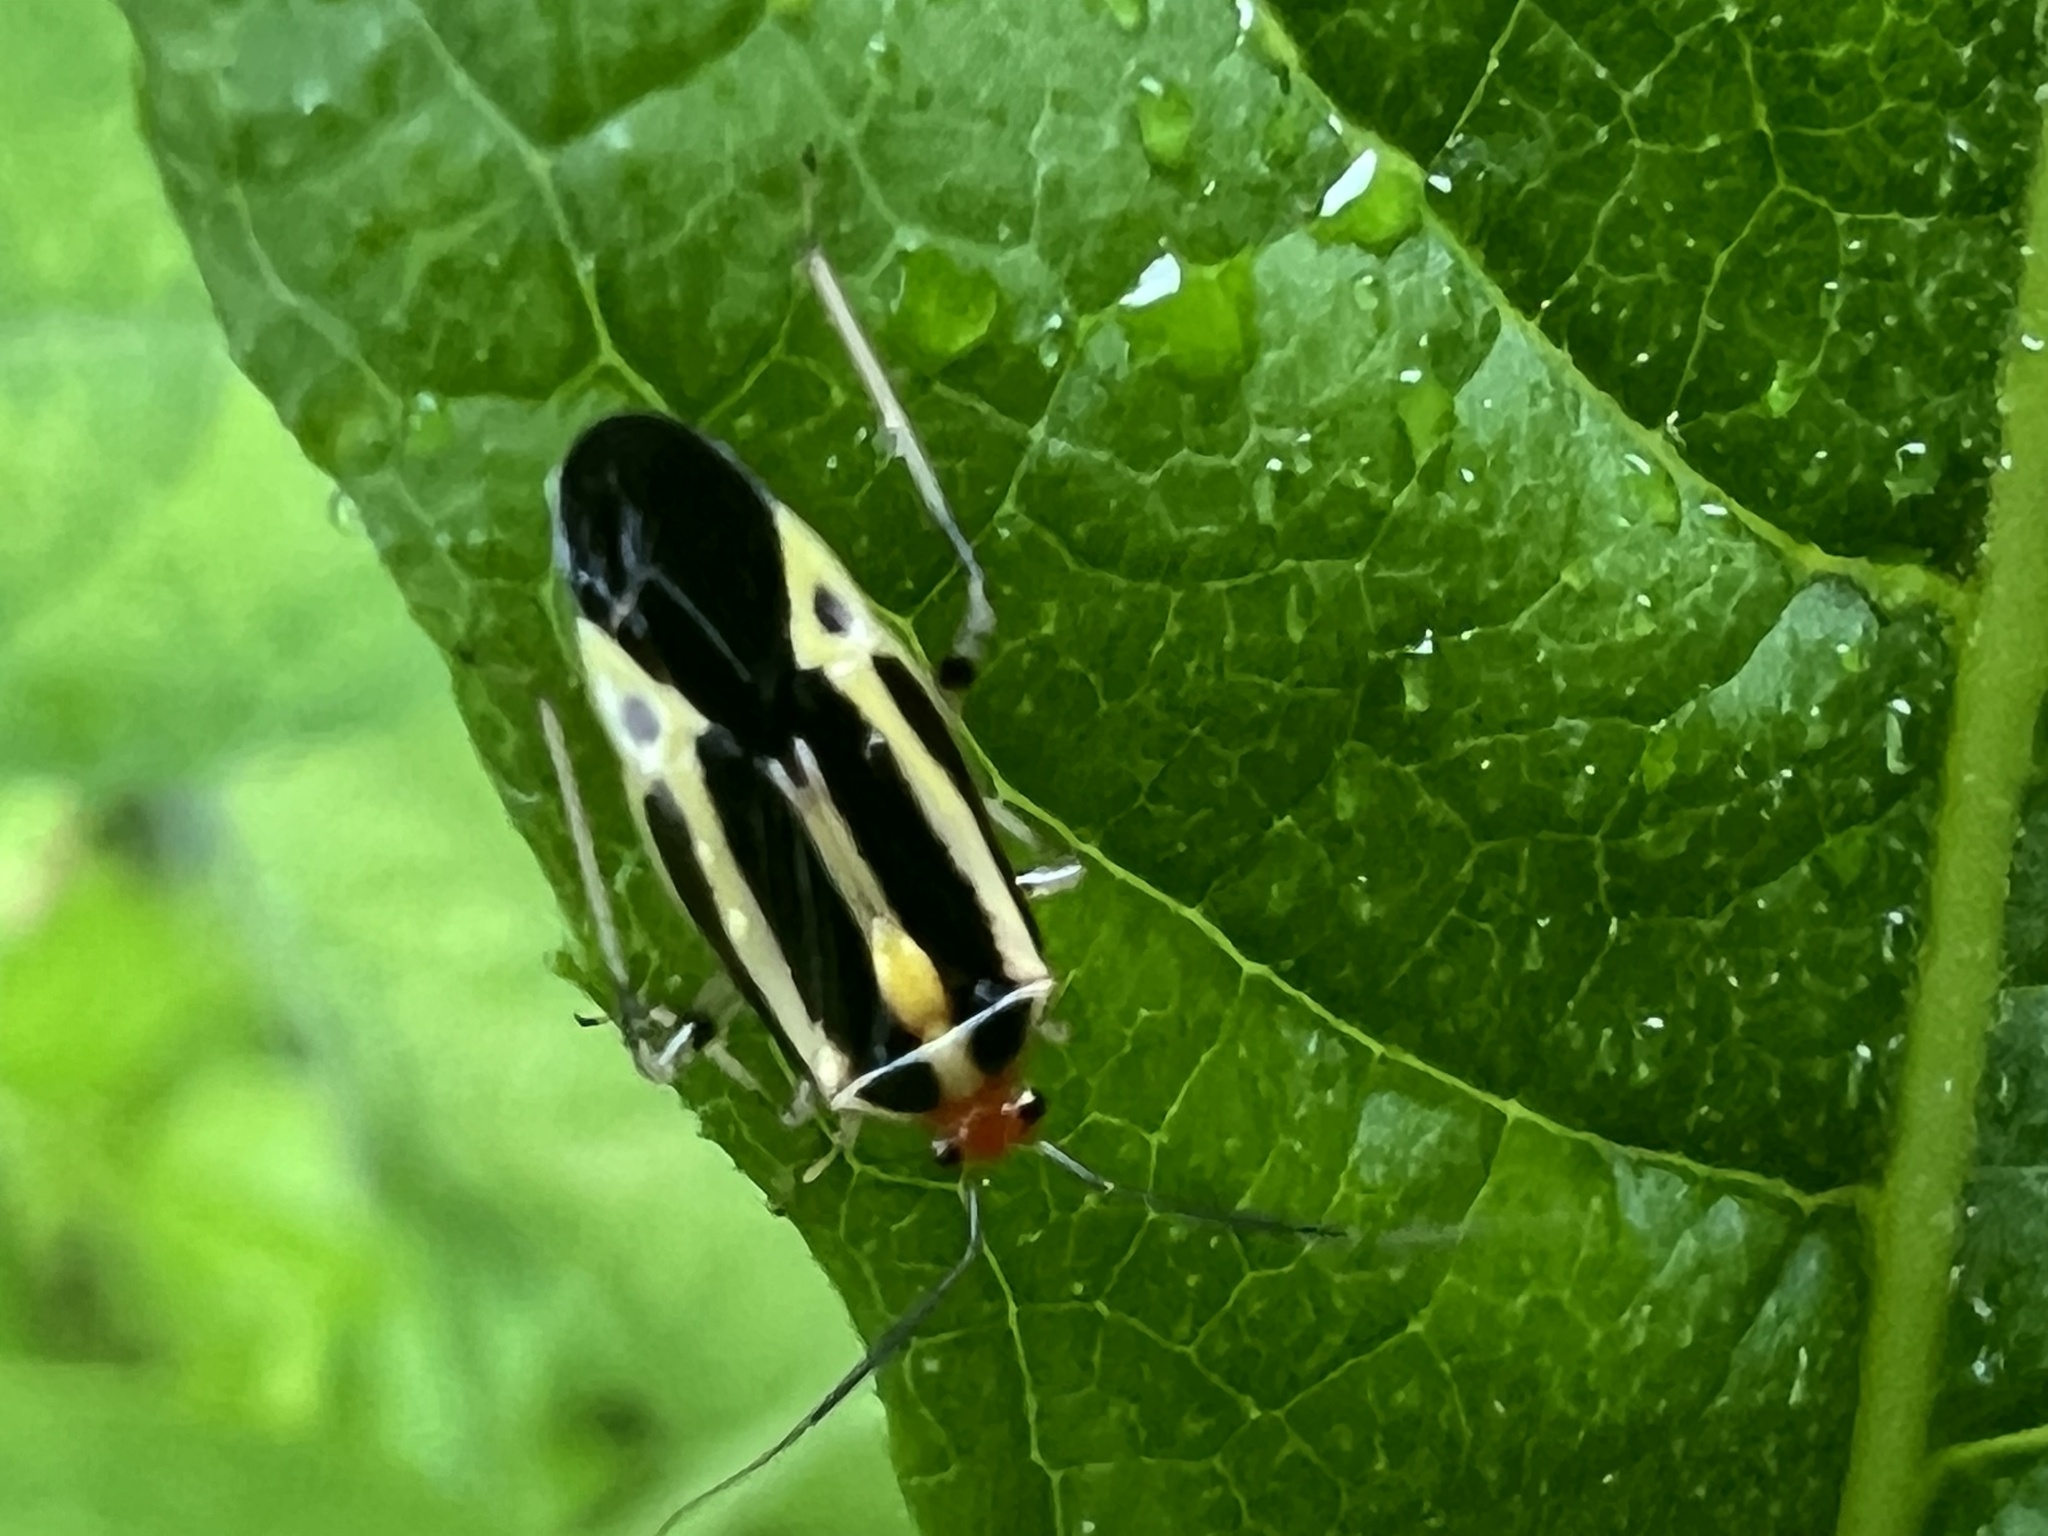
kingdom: Animalia
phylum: Arthropoda
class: Insecta
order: Hemiptera
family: Miridae
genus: Poecilocapsus
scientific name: Poecilocapsus lineatus
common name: Four-lined plant bug
